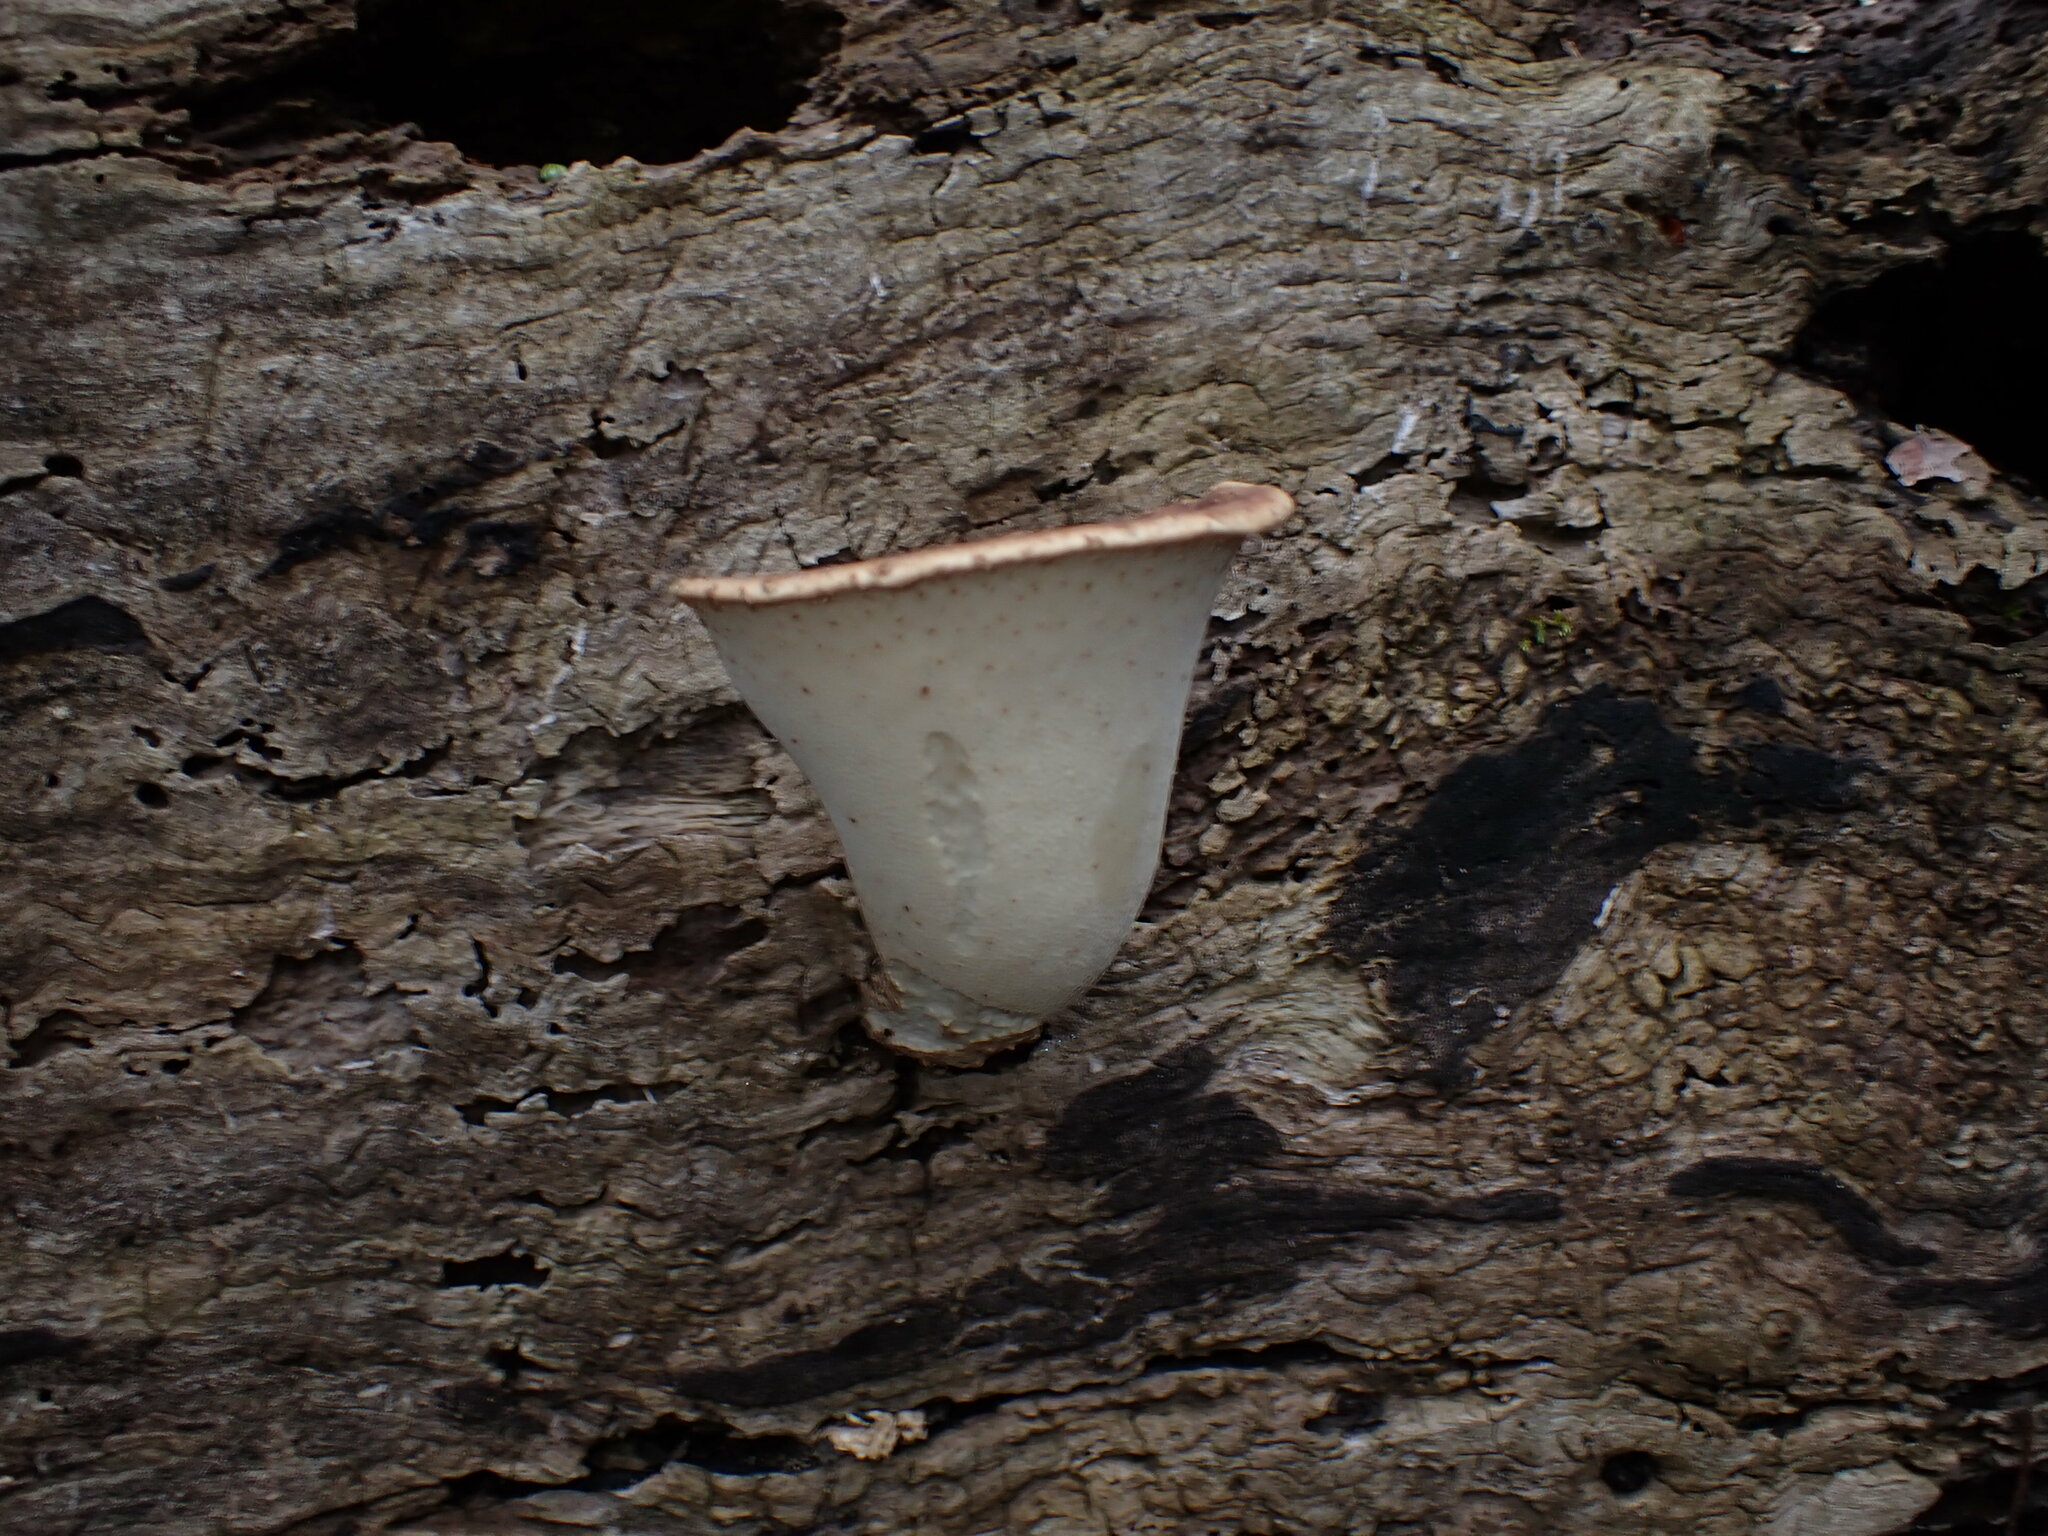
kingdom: Fungi
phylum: Basidiomycota
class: Agaricomycetes
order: Polyporales
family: Polyporaceae
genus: Cerioporus
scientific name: Cerioporus squamosus
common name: Dryad's saddle
